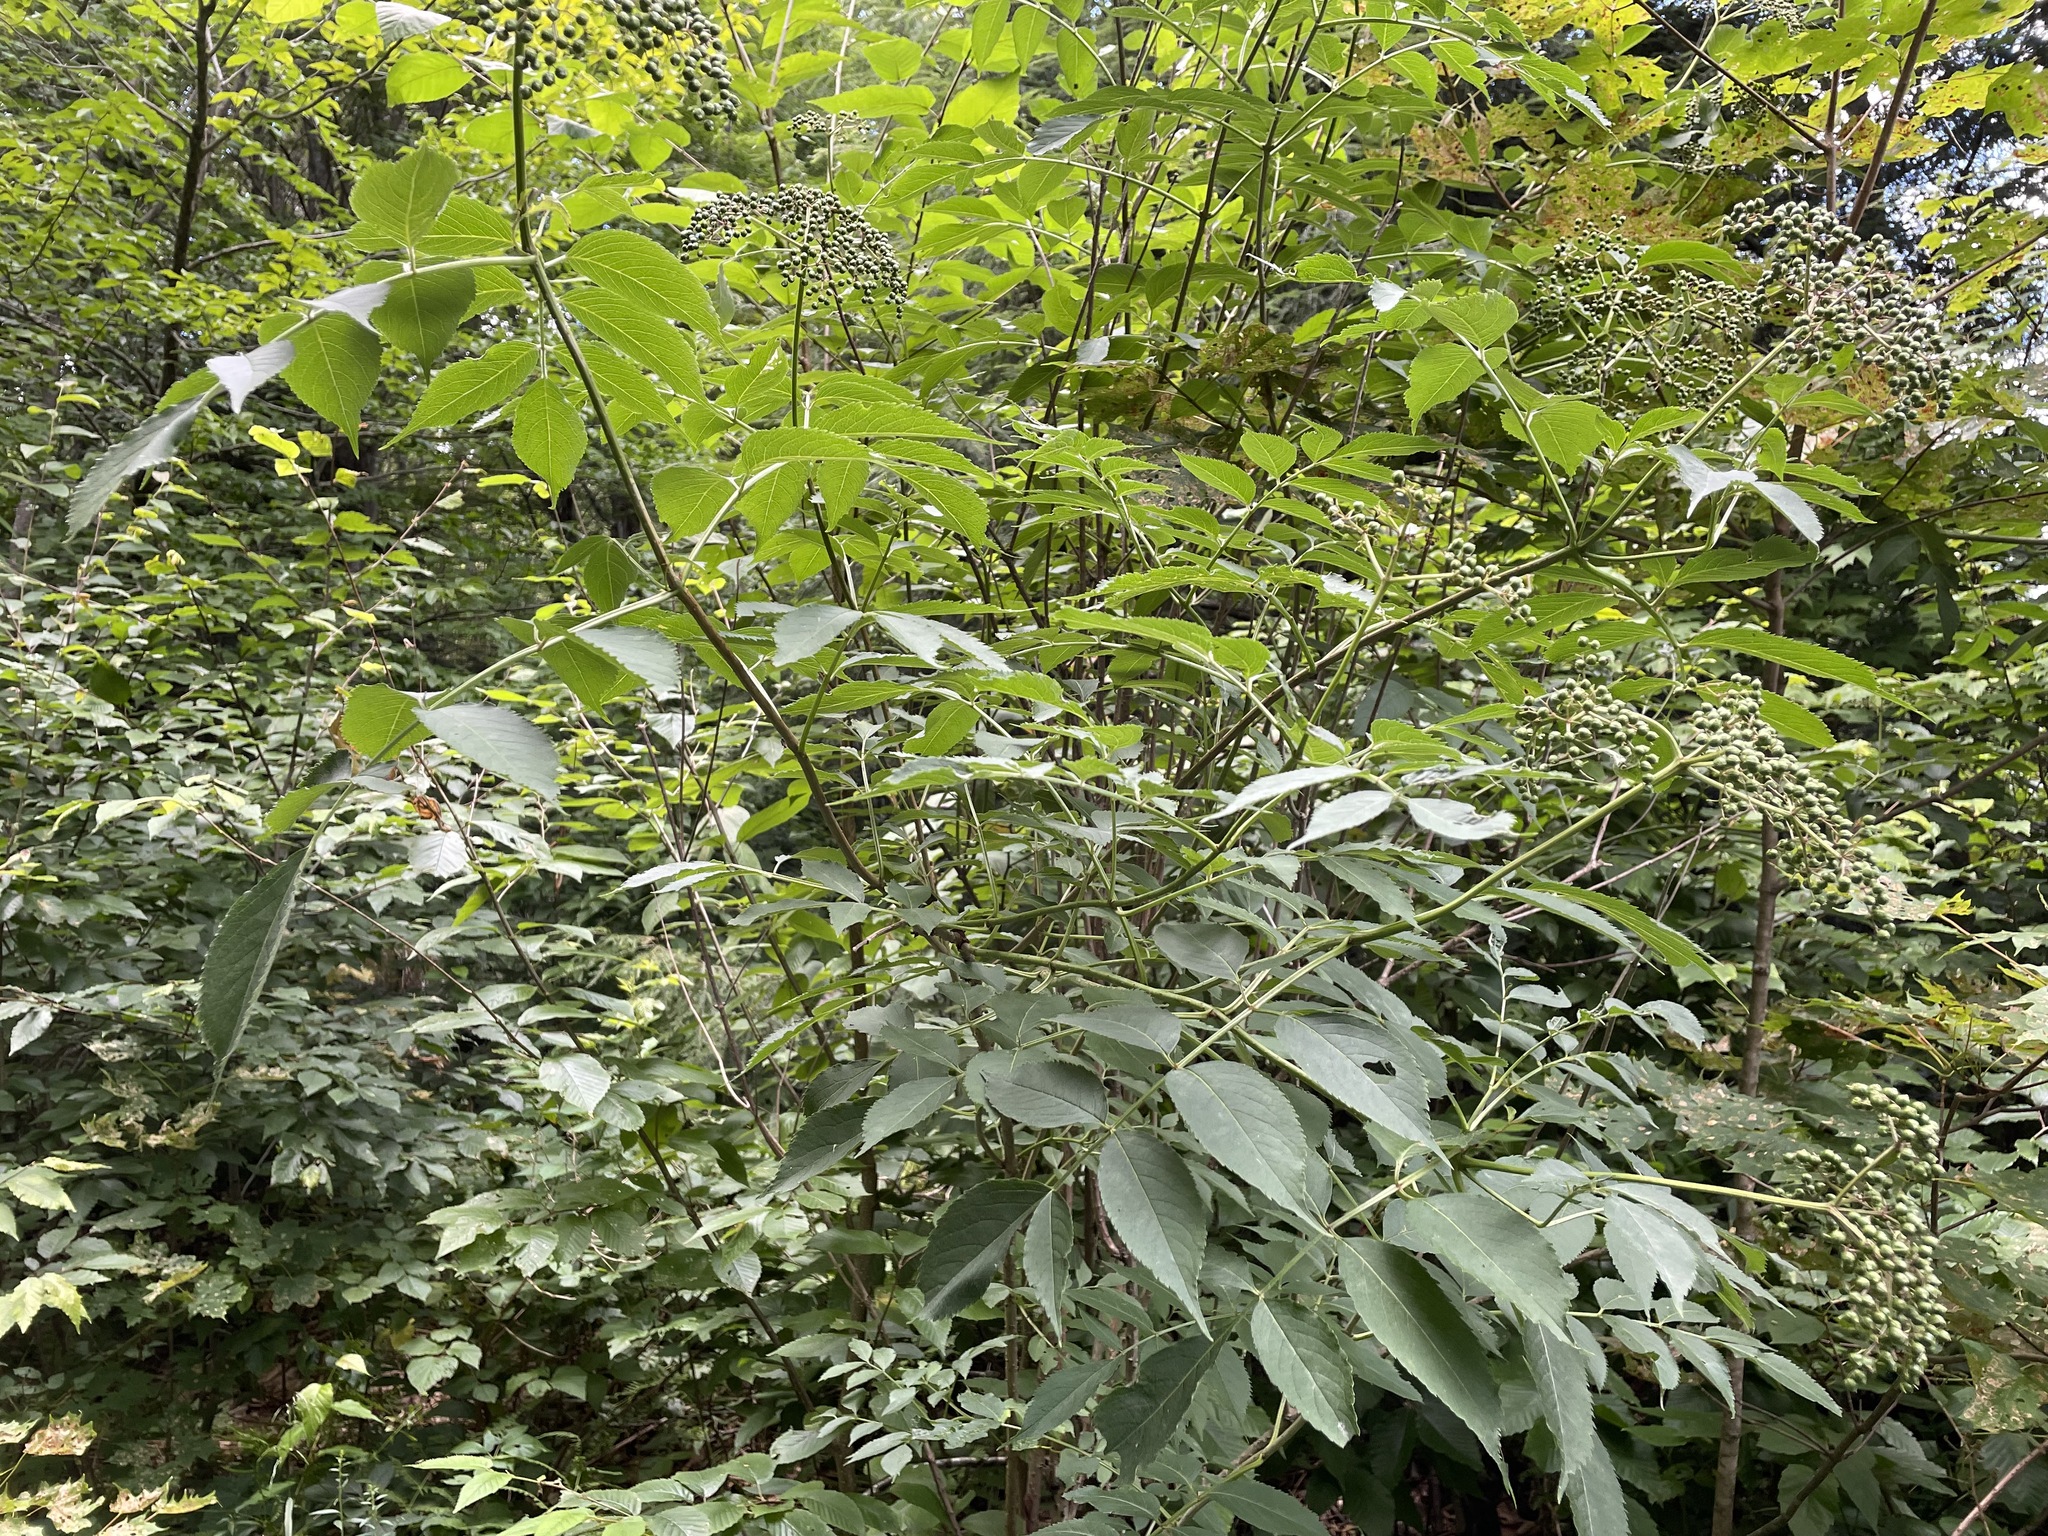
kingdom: Plantae
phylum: Tracheophyta
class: Magnoliopsida
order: Dipsacales
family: Viburnaceae
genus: Sambucus
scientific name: Sambucus canadensis
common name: American elder
